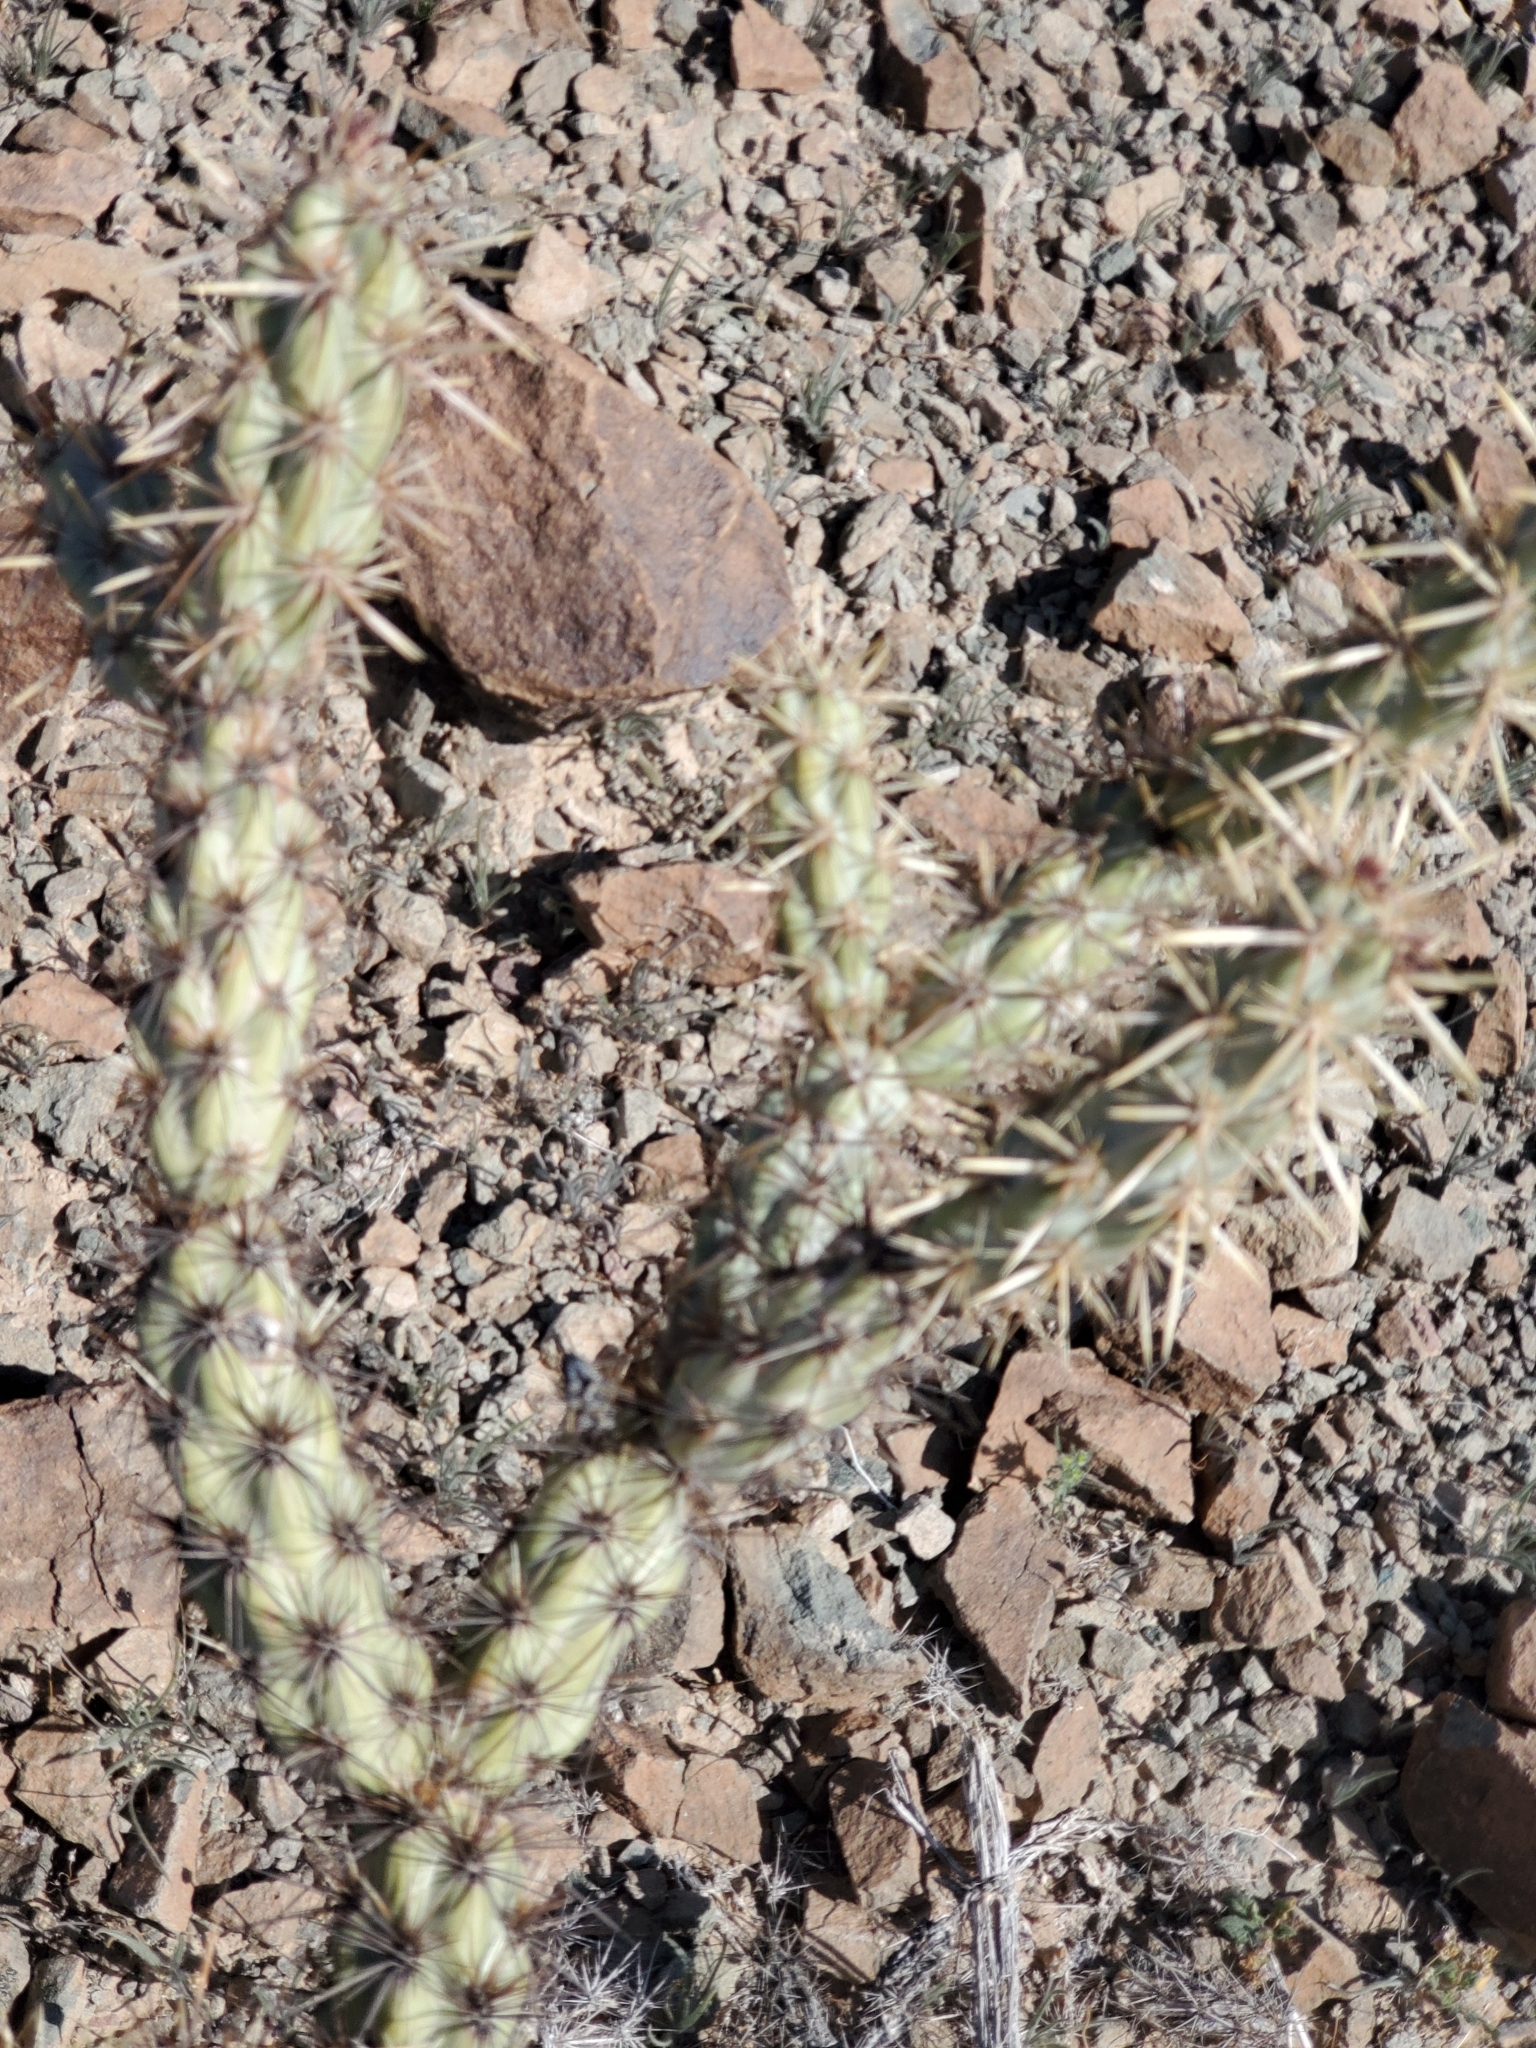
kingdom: Plantae
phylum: Tracheophyta
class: Magnoliopsida
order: Caryophyllales
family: Cactaceae
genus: Cylindropuntia
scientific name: Cylindropuntia acanthocarpa
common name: Buckhorn cholla
